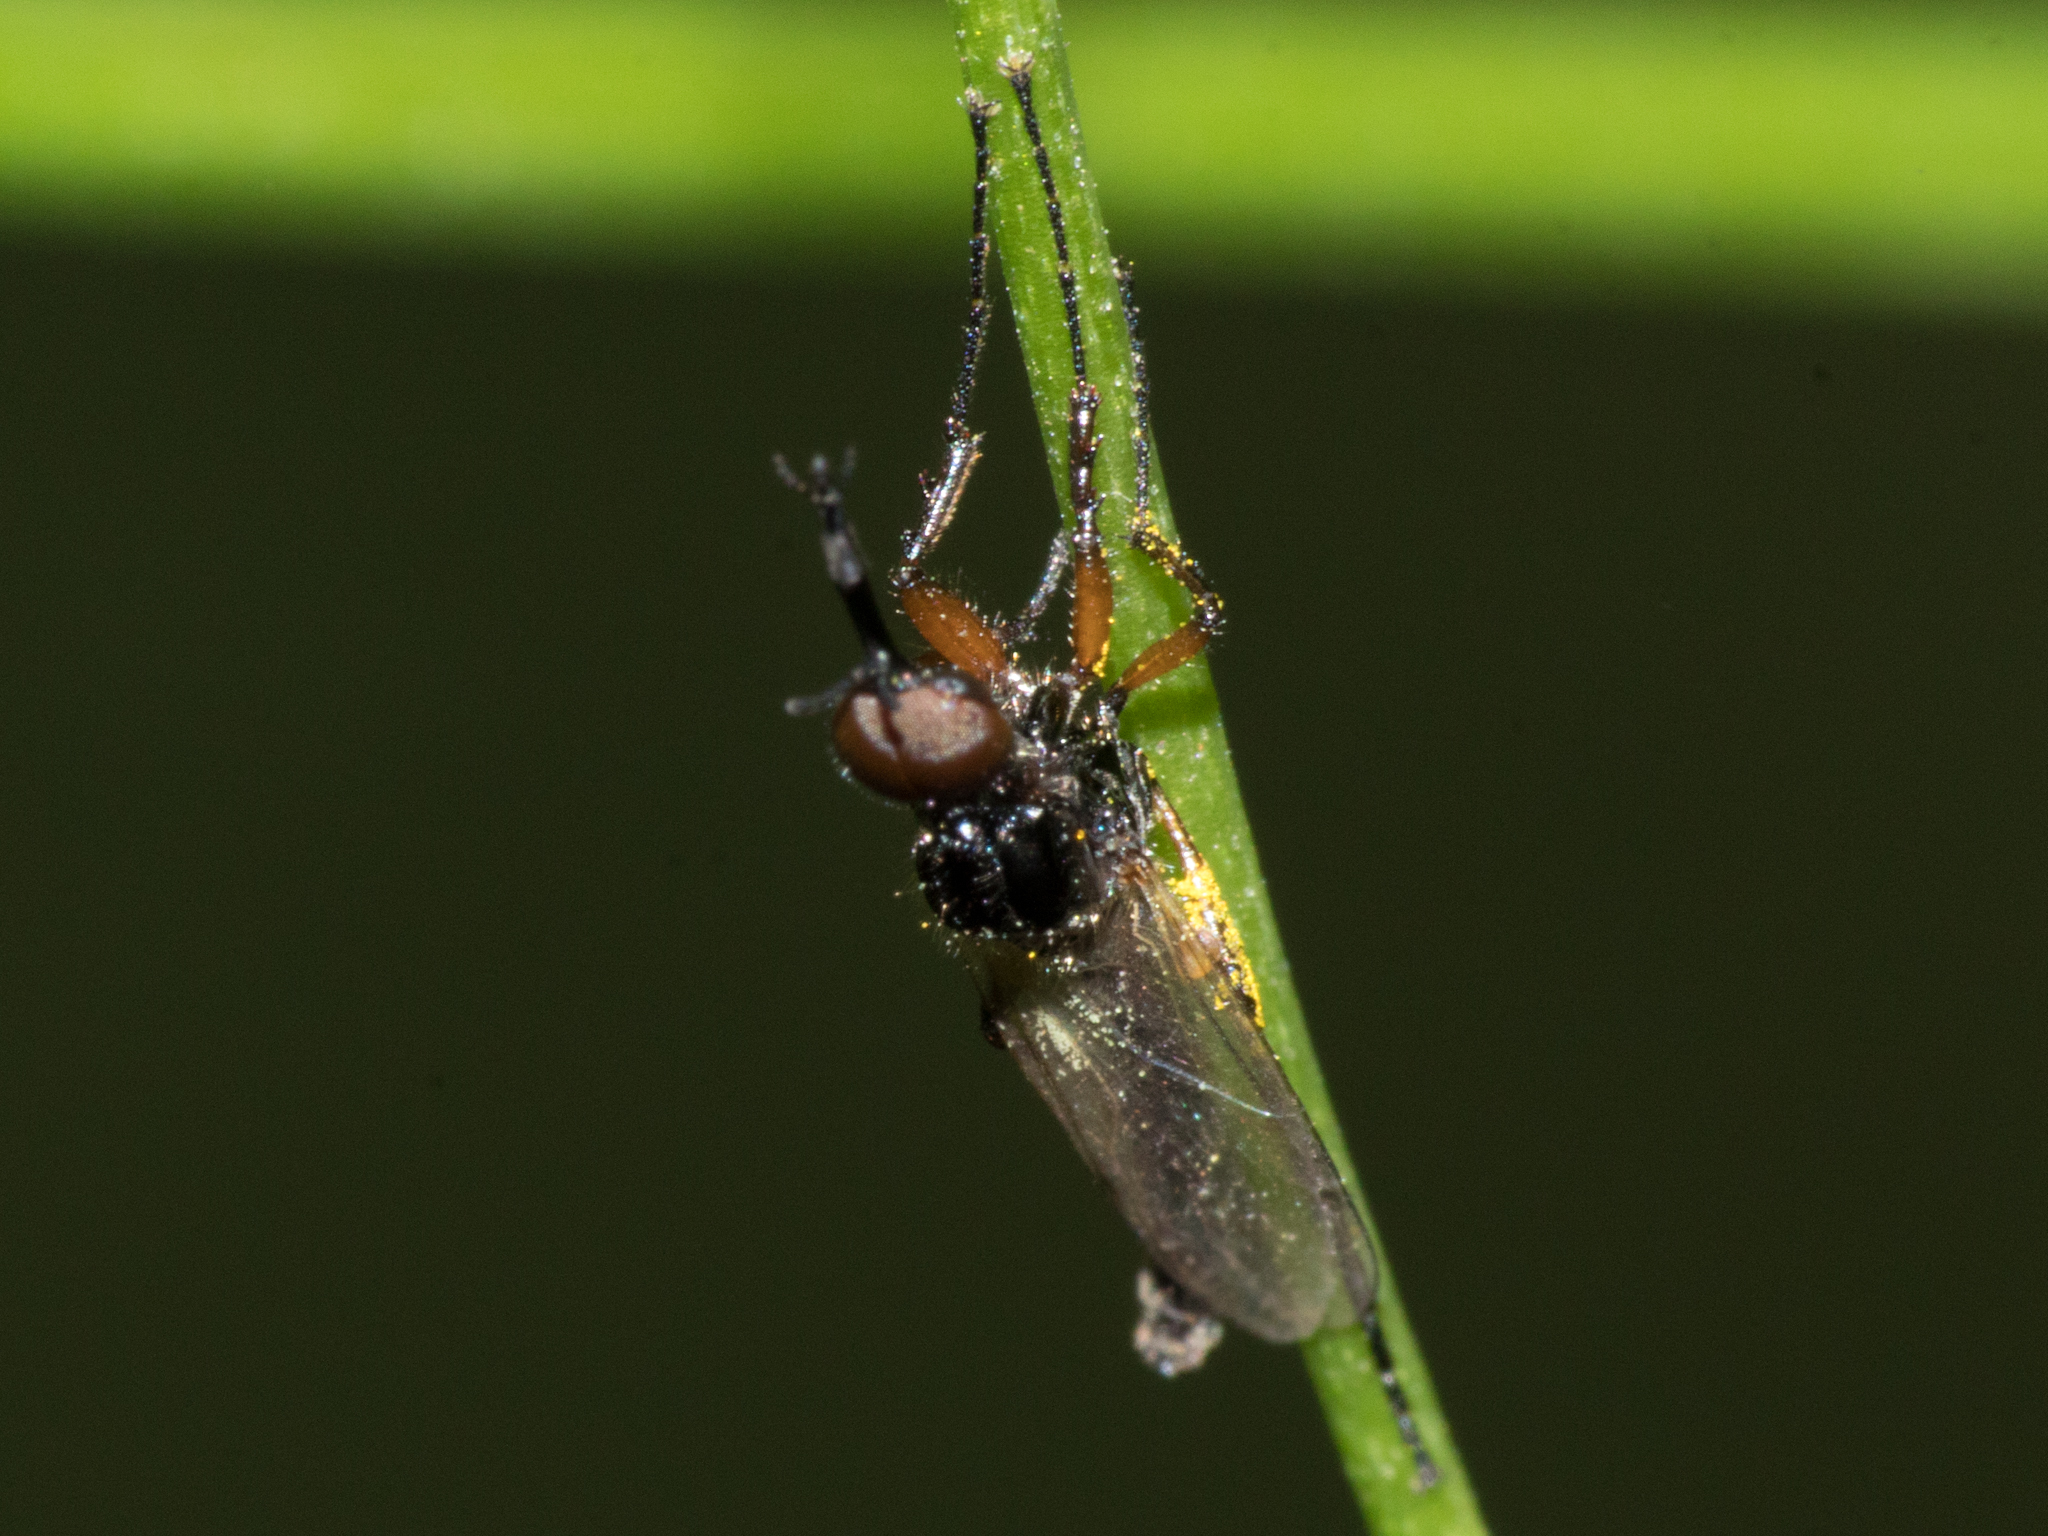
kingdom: Animalia
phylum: Arthropoda
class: Insecta
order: Diptera
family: Bibionidae
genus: Dilophus
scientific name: Dilophus bicoloripes
